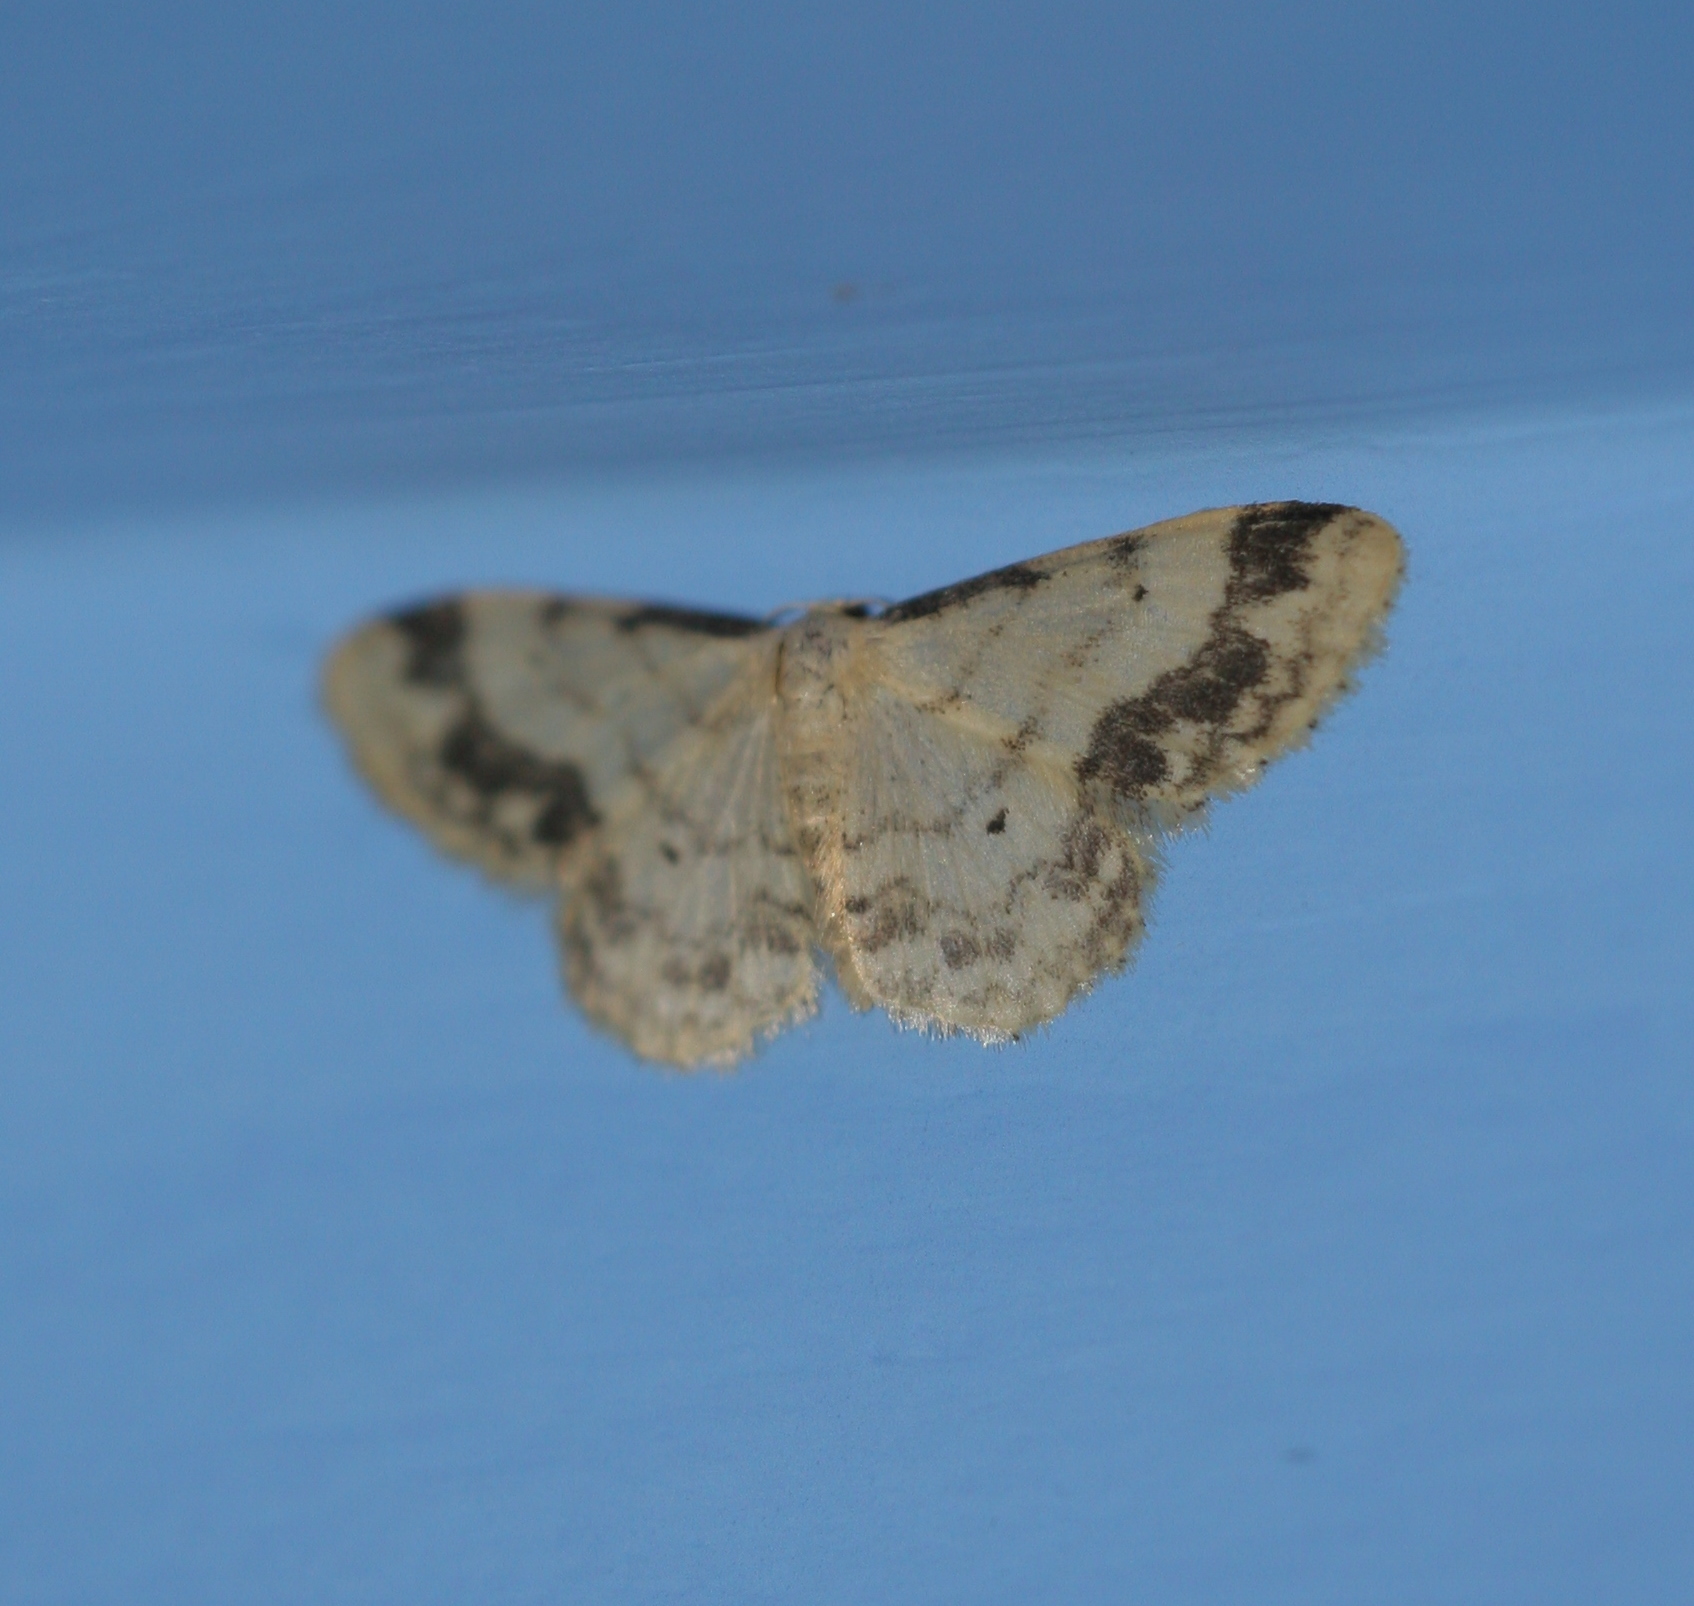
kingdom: Animalia
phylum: Arthropoda
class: Insecta
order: Lepidoptera
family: Geometridae
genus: Idaea
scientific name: Idaea trigeminata
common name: Treble brown spot
